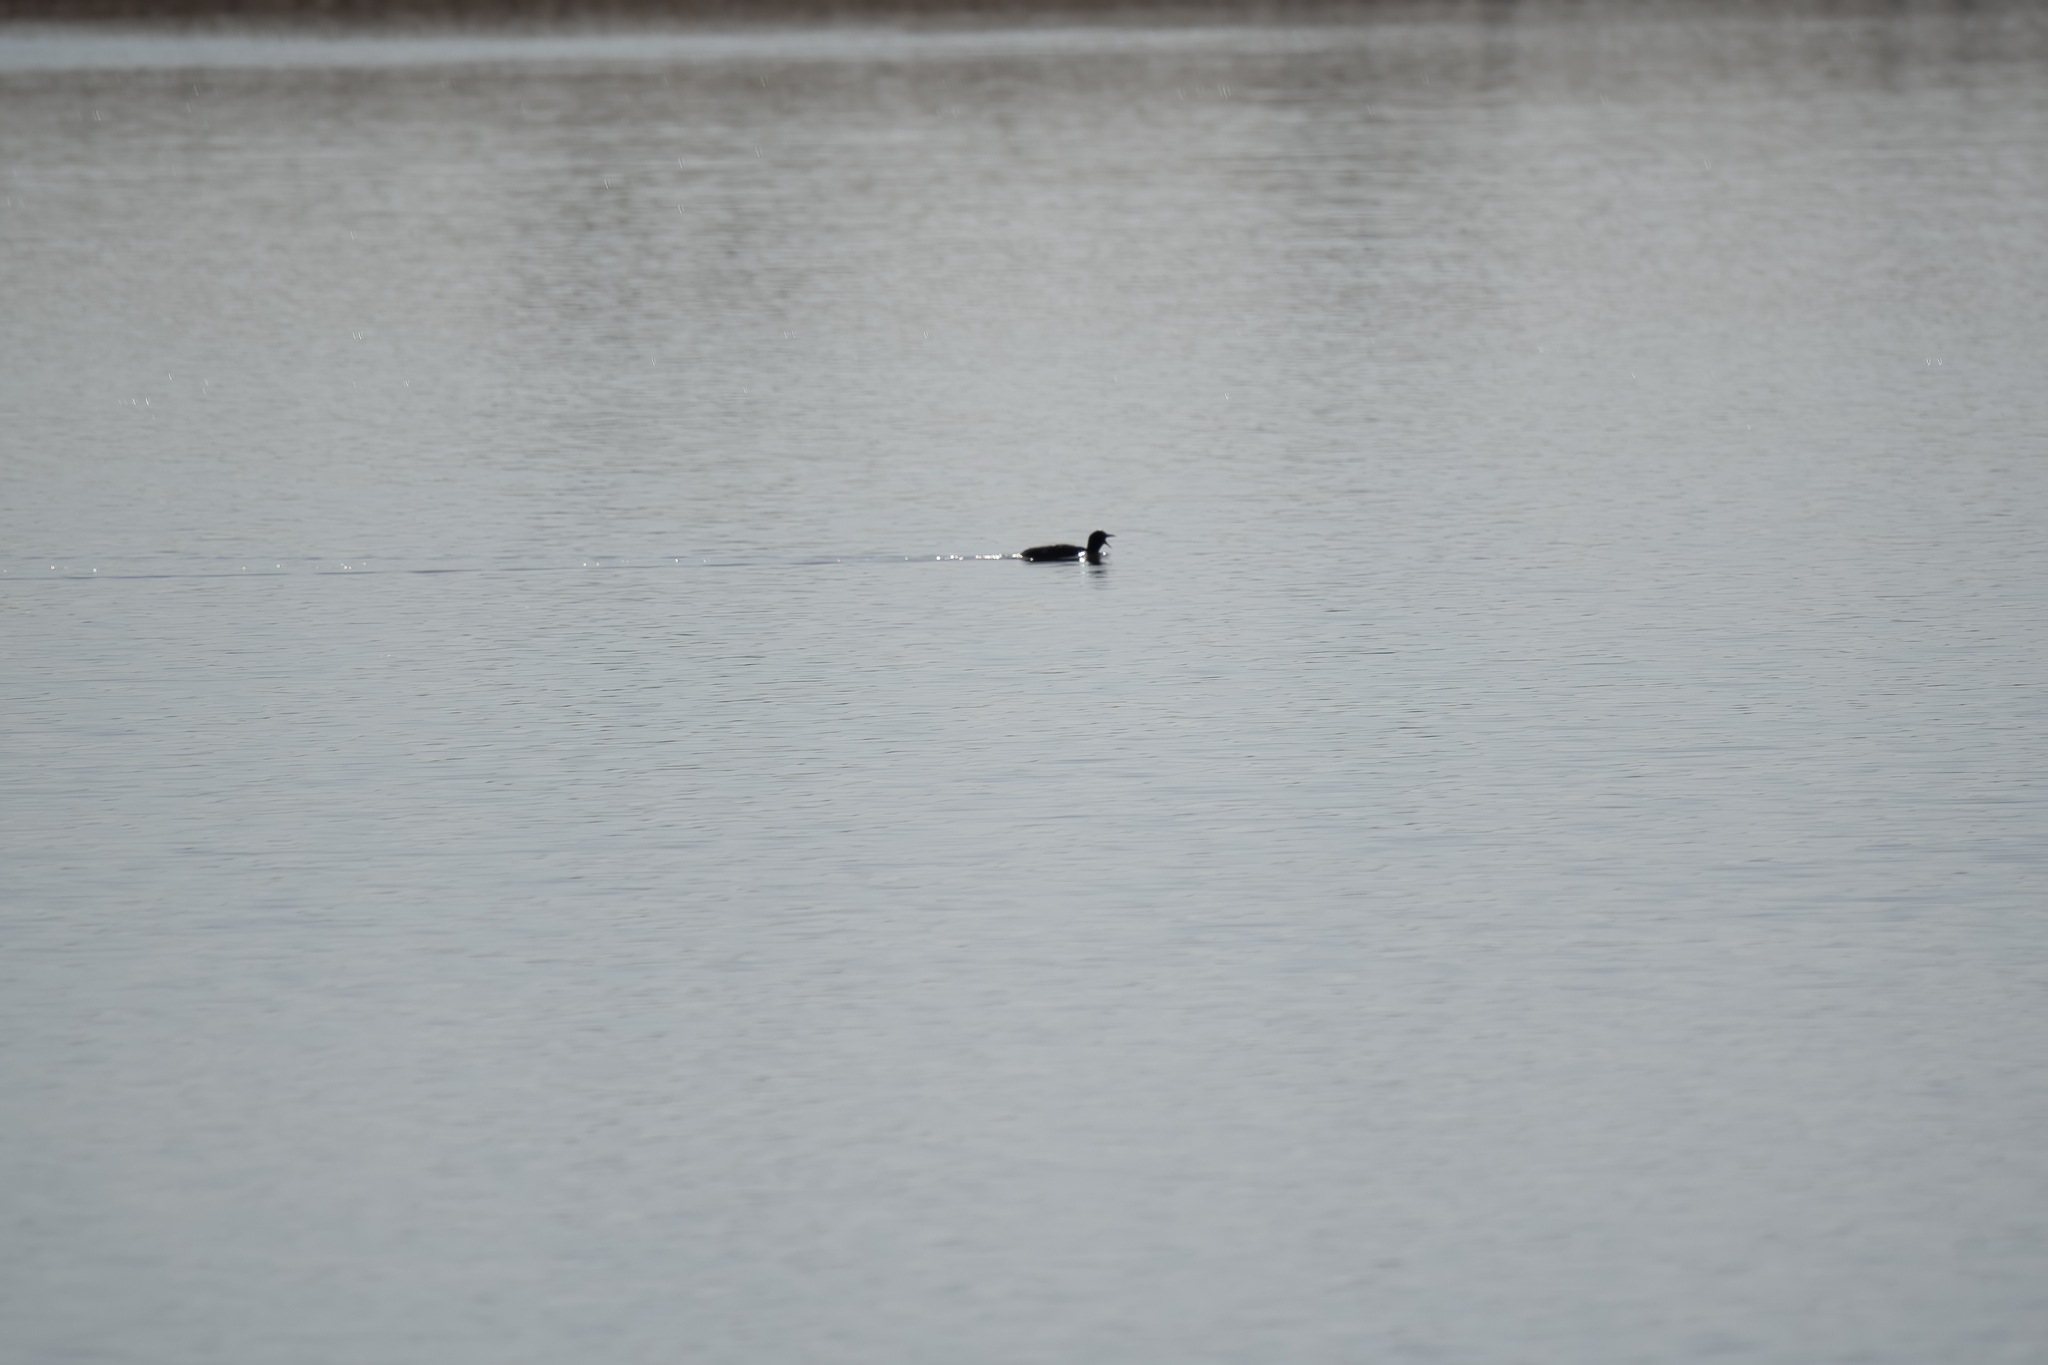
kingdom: Animalia
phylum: Chordata
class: Aves
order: Gruiformes
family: Rallidae
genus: Fulica
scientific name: Fulica atra
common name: Eurasian coot
